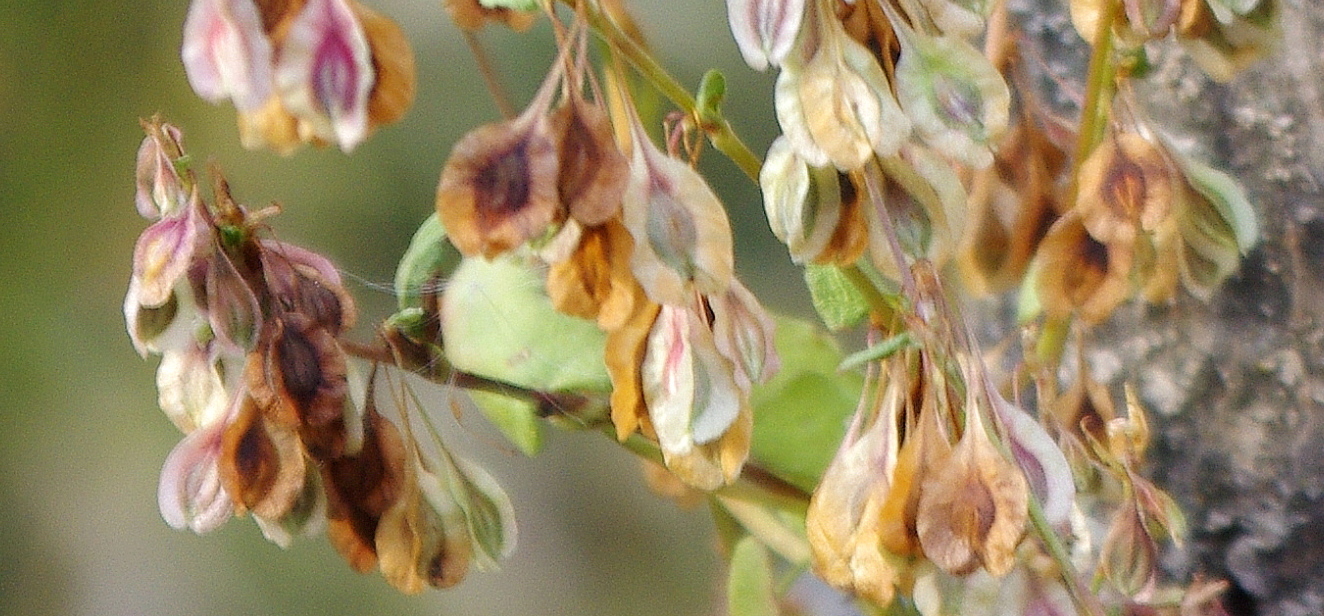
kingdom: Plantae
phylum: Tracheophyta
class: Magnoliopsida
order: Caryophyllales
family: Polygonaceae
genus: Fallopia
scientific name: Fallopia dumetorum
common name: Copse-bindweed
